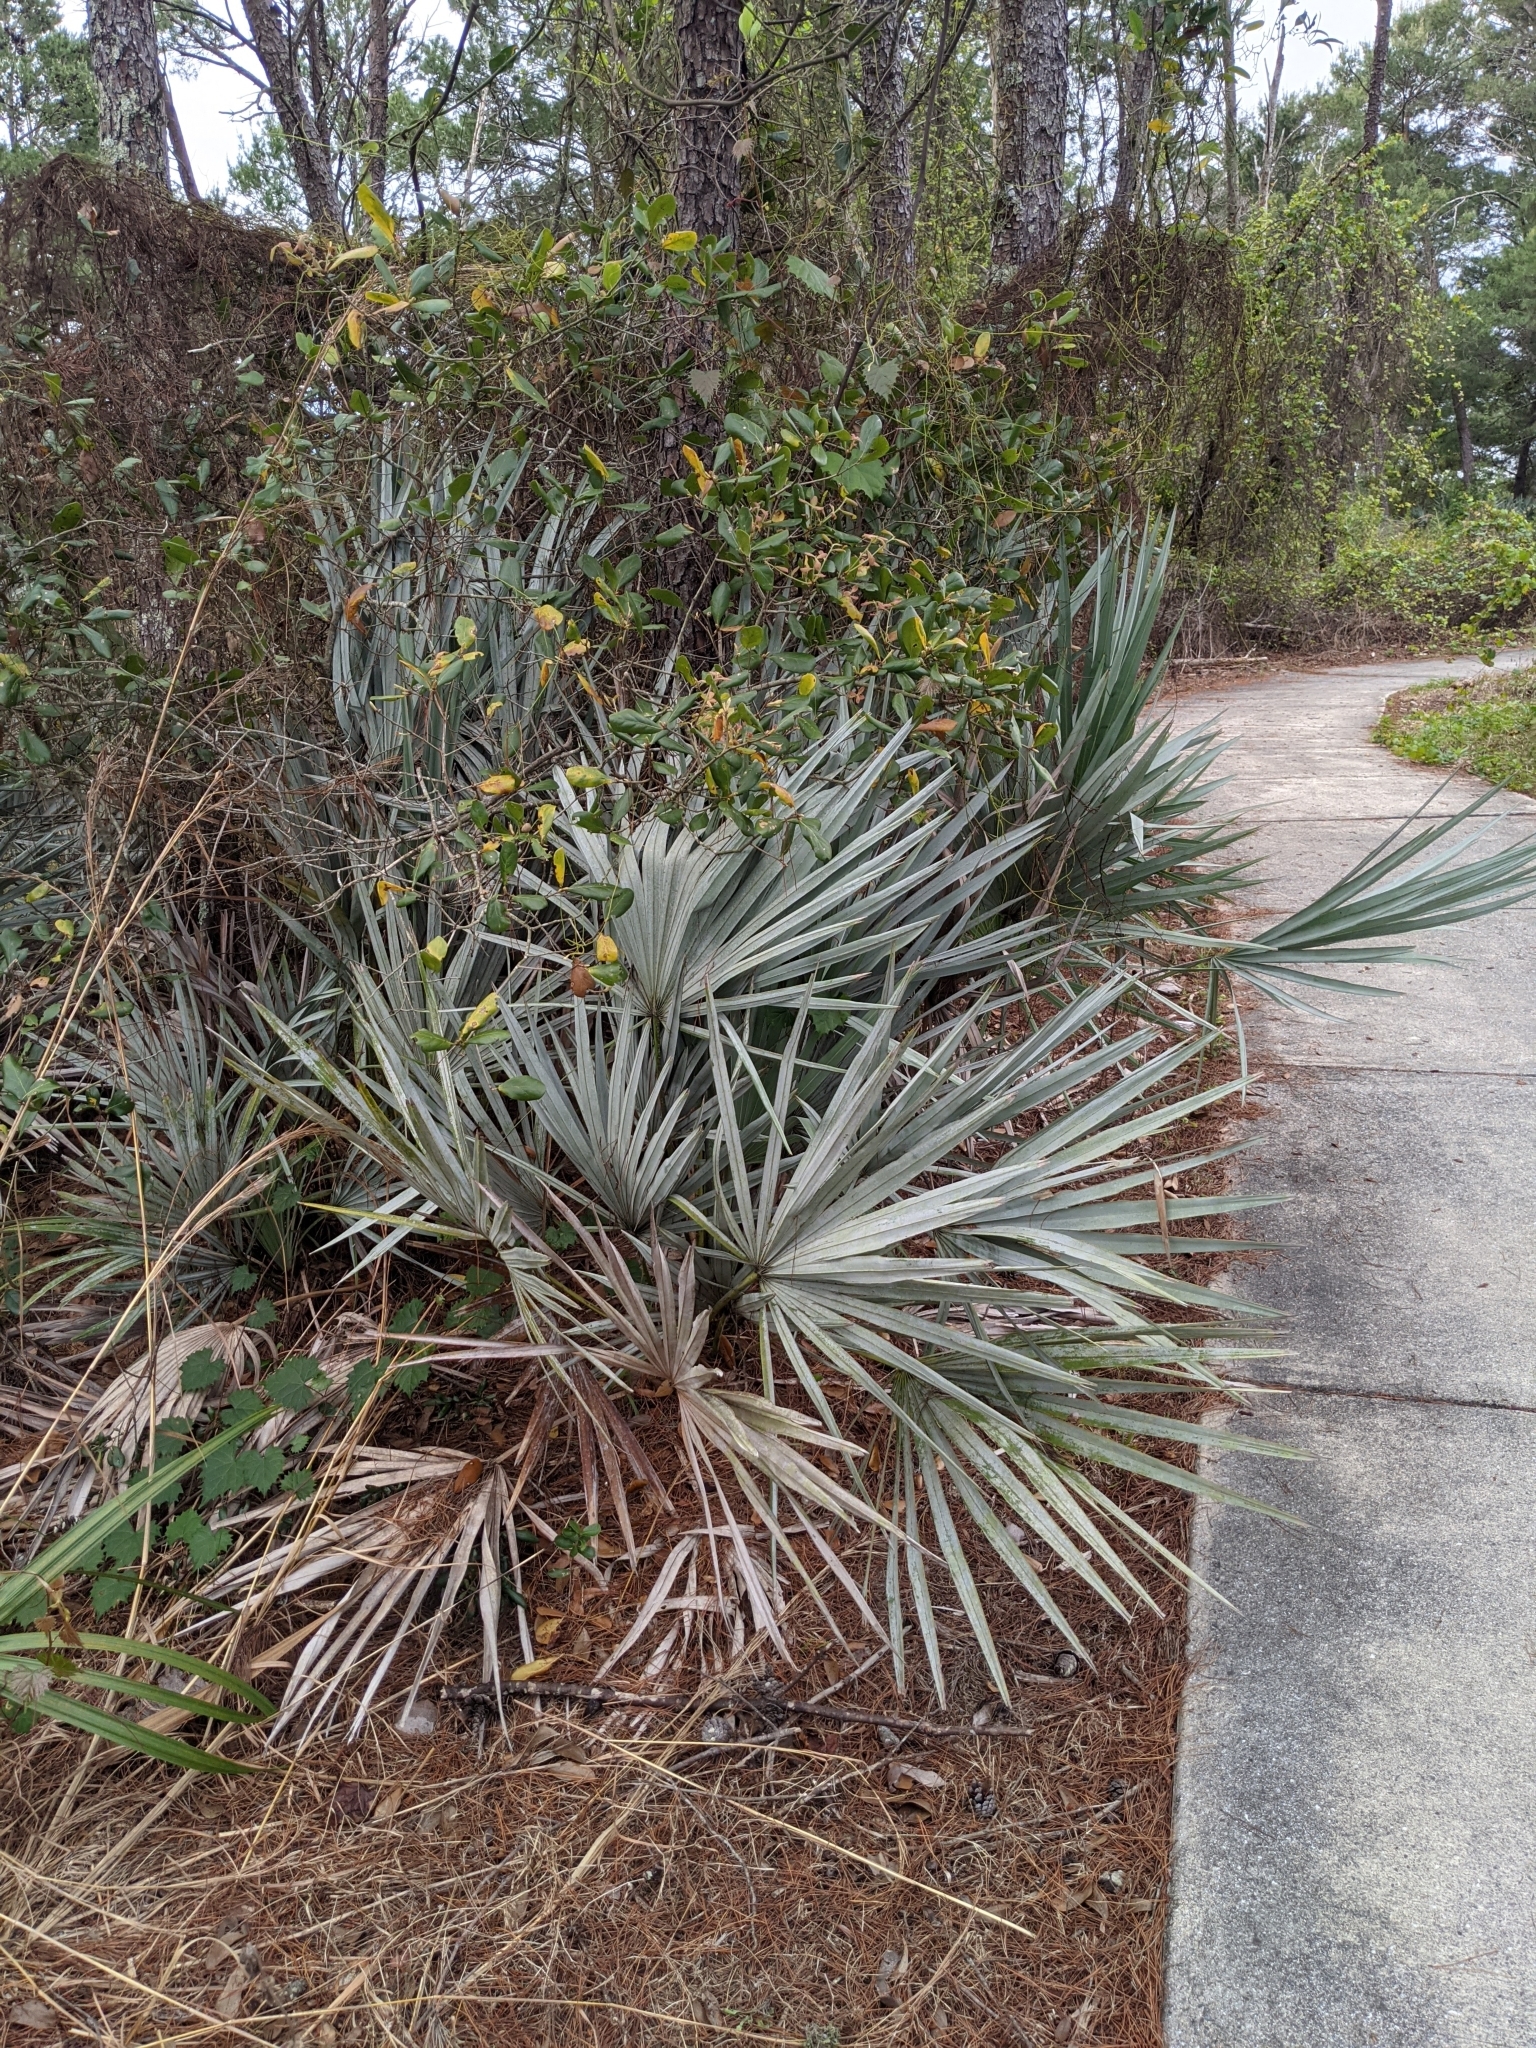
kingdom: Plantae
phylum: Tracheophyta
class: Liliopsida
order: Arecales
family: Arecaceae
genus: Serenoa
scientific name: Serenoa repens
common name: Saw-palmetto
